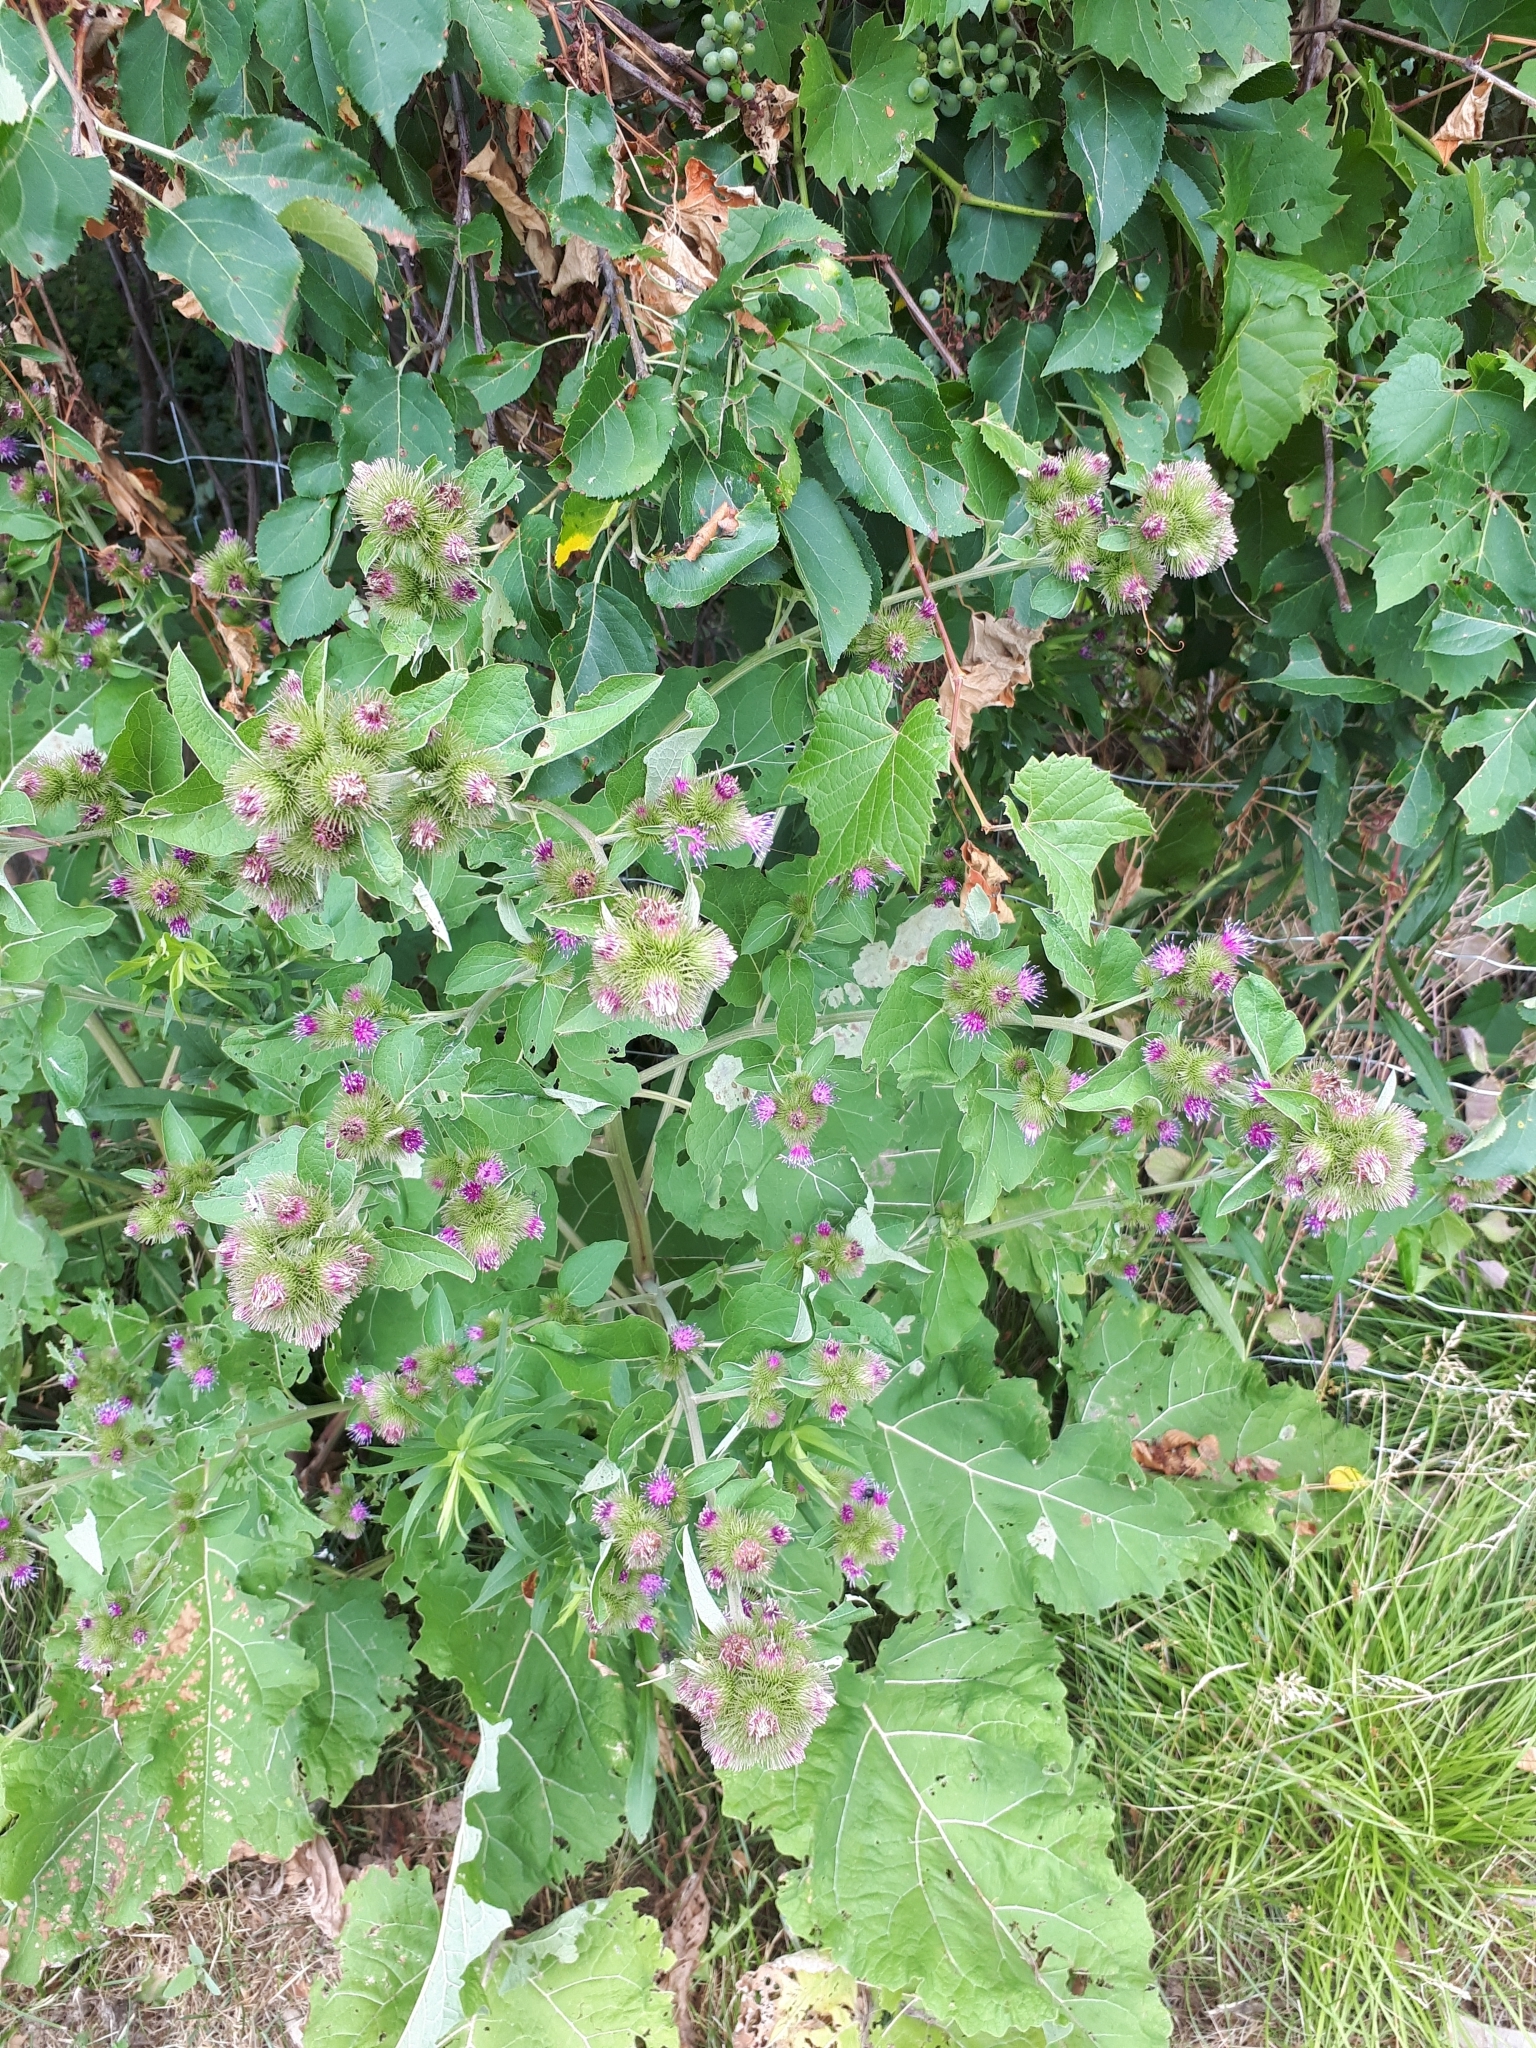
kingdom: Plantae
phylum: Tracheophyta
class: Magnoliopsida
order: Asterales
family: Asteraceae
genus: Arctium
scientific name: Arctium lappa
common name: Greater burdock
